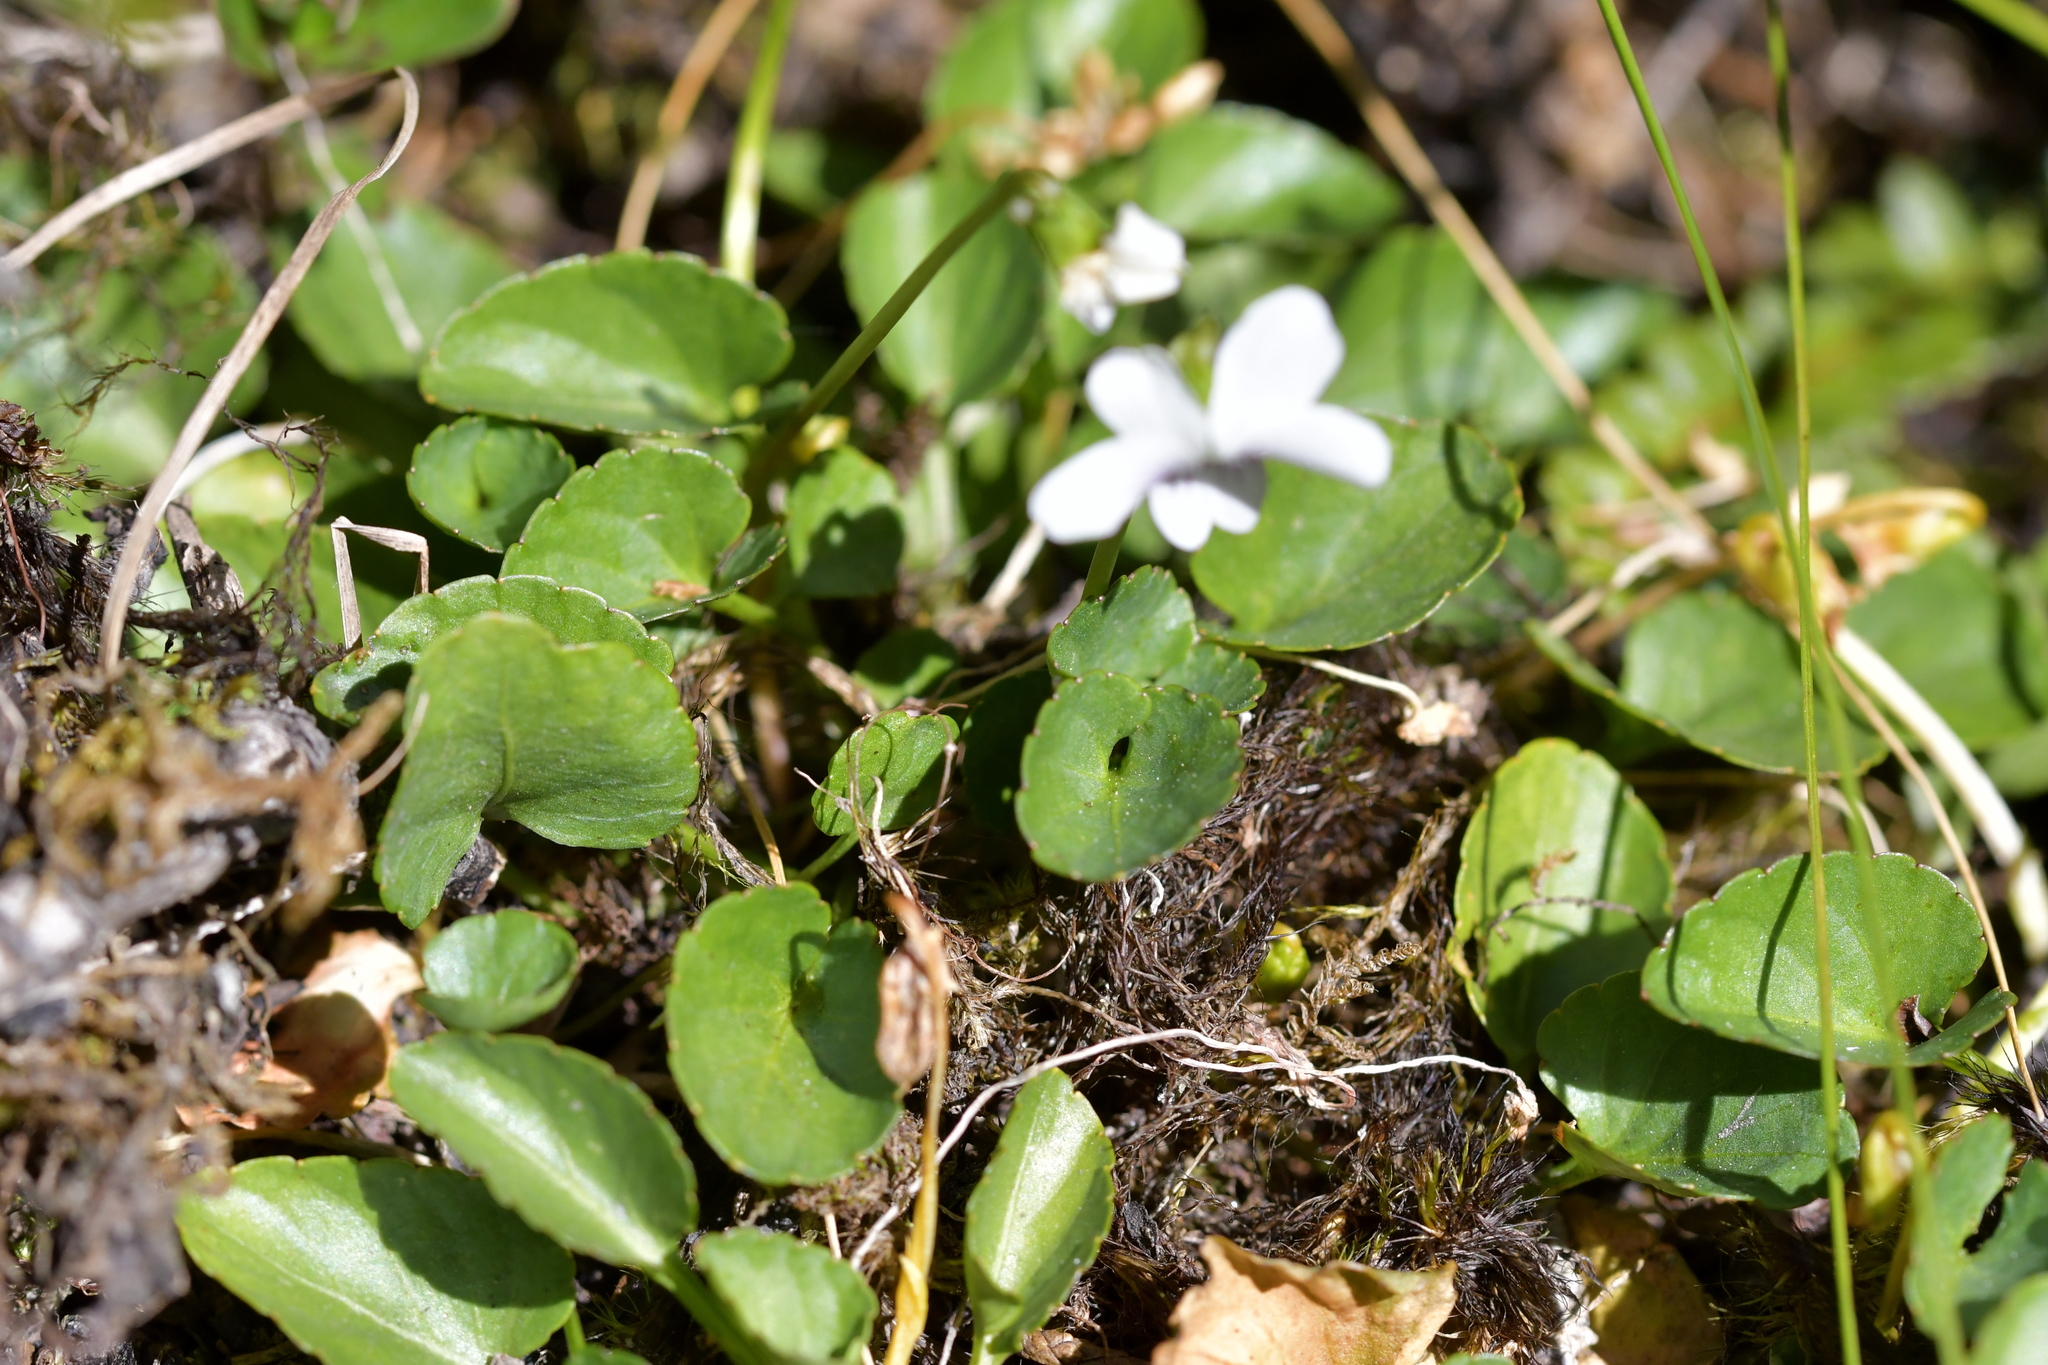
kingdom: Plantae
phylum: Tracheophyta
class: Magnoliopsida
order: Malpighiales
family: Violaceae
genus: Viola
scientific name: Viola cunninghamii
